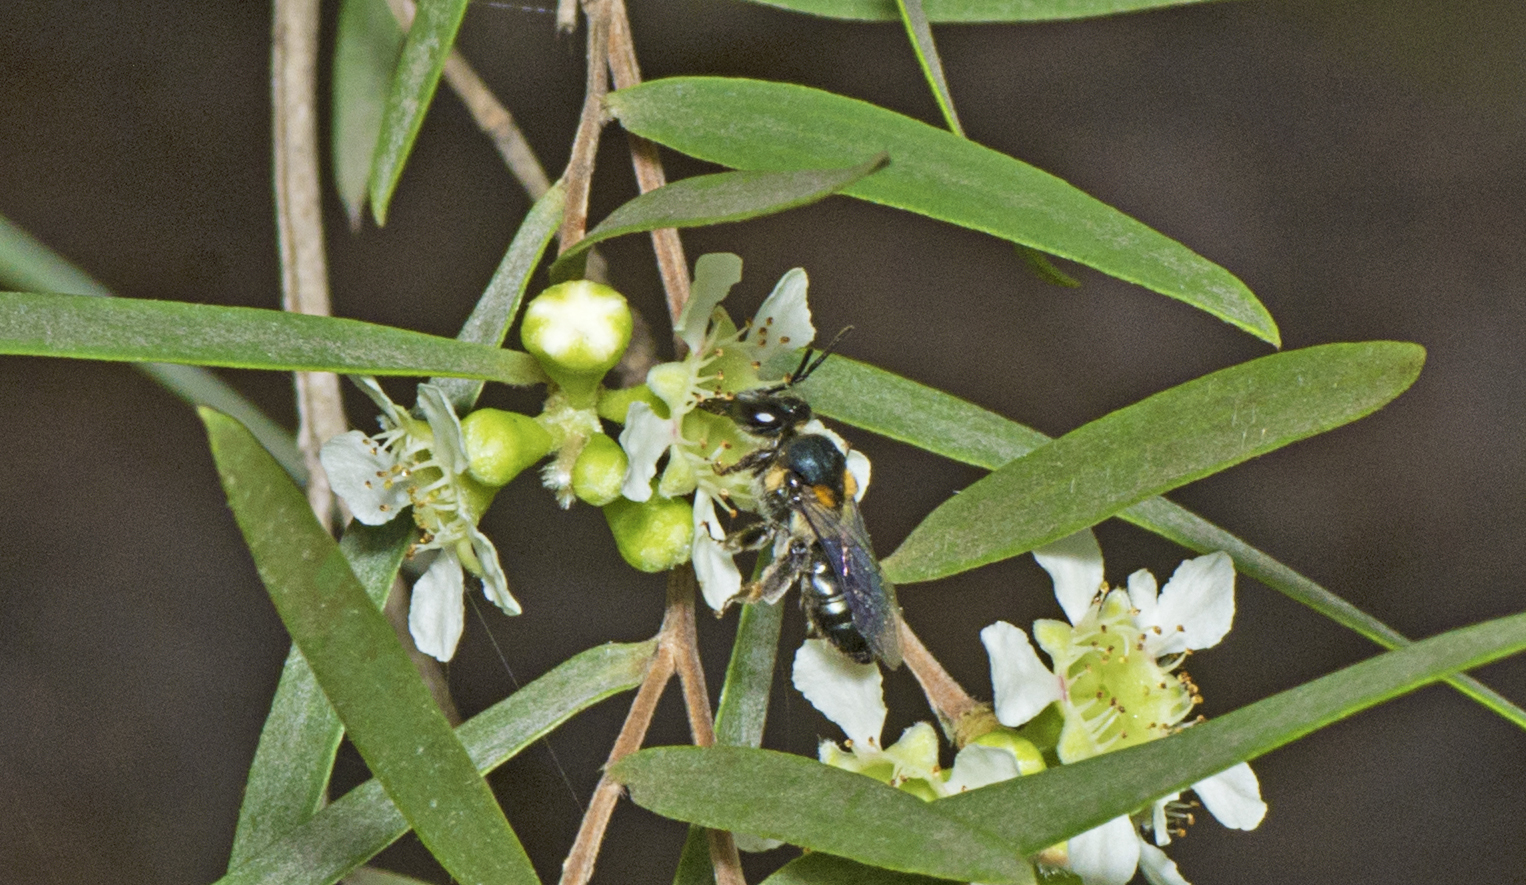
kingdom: Animalia
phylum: Arthropoda
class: Insecta
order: Hymenoptera
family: Colletidae
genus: Leioproctus
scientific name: Leioproctus bicristatus
